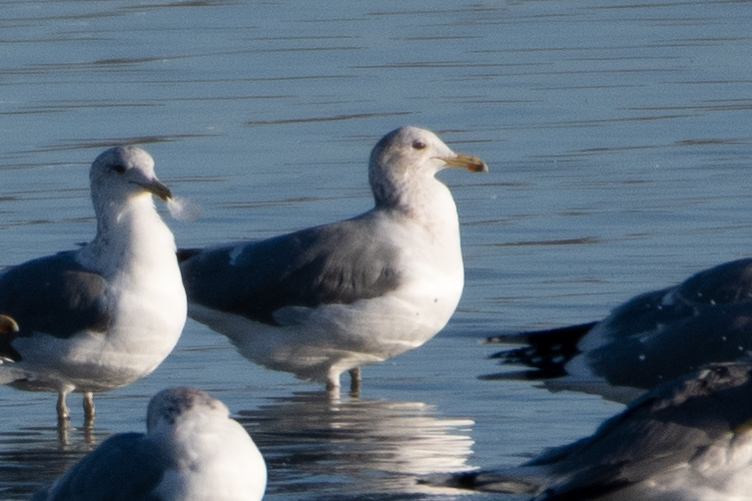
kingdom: Animalia
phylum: Chordata
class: Aves
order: Charadriiformes
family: Laridae
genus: Larus
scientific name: Larus californicus
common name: California gull
